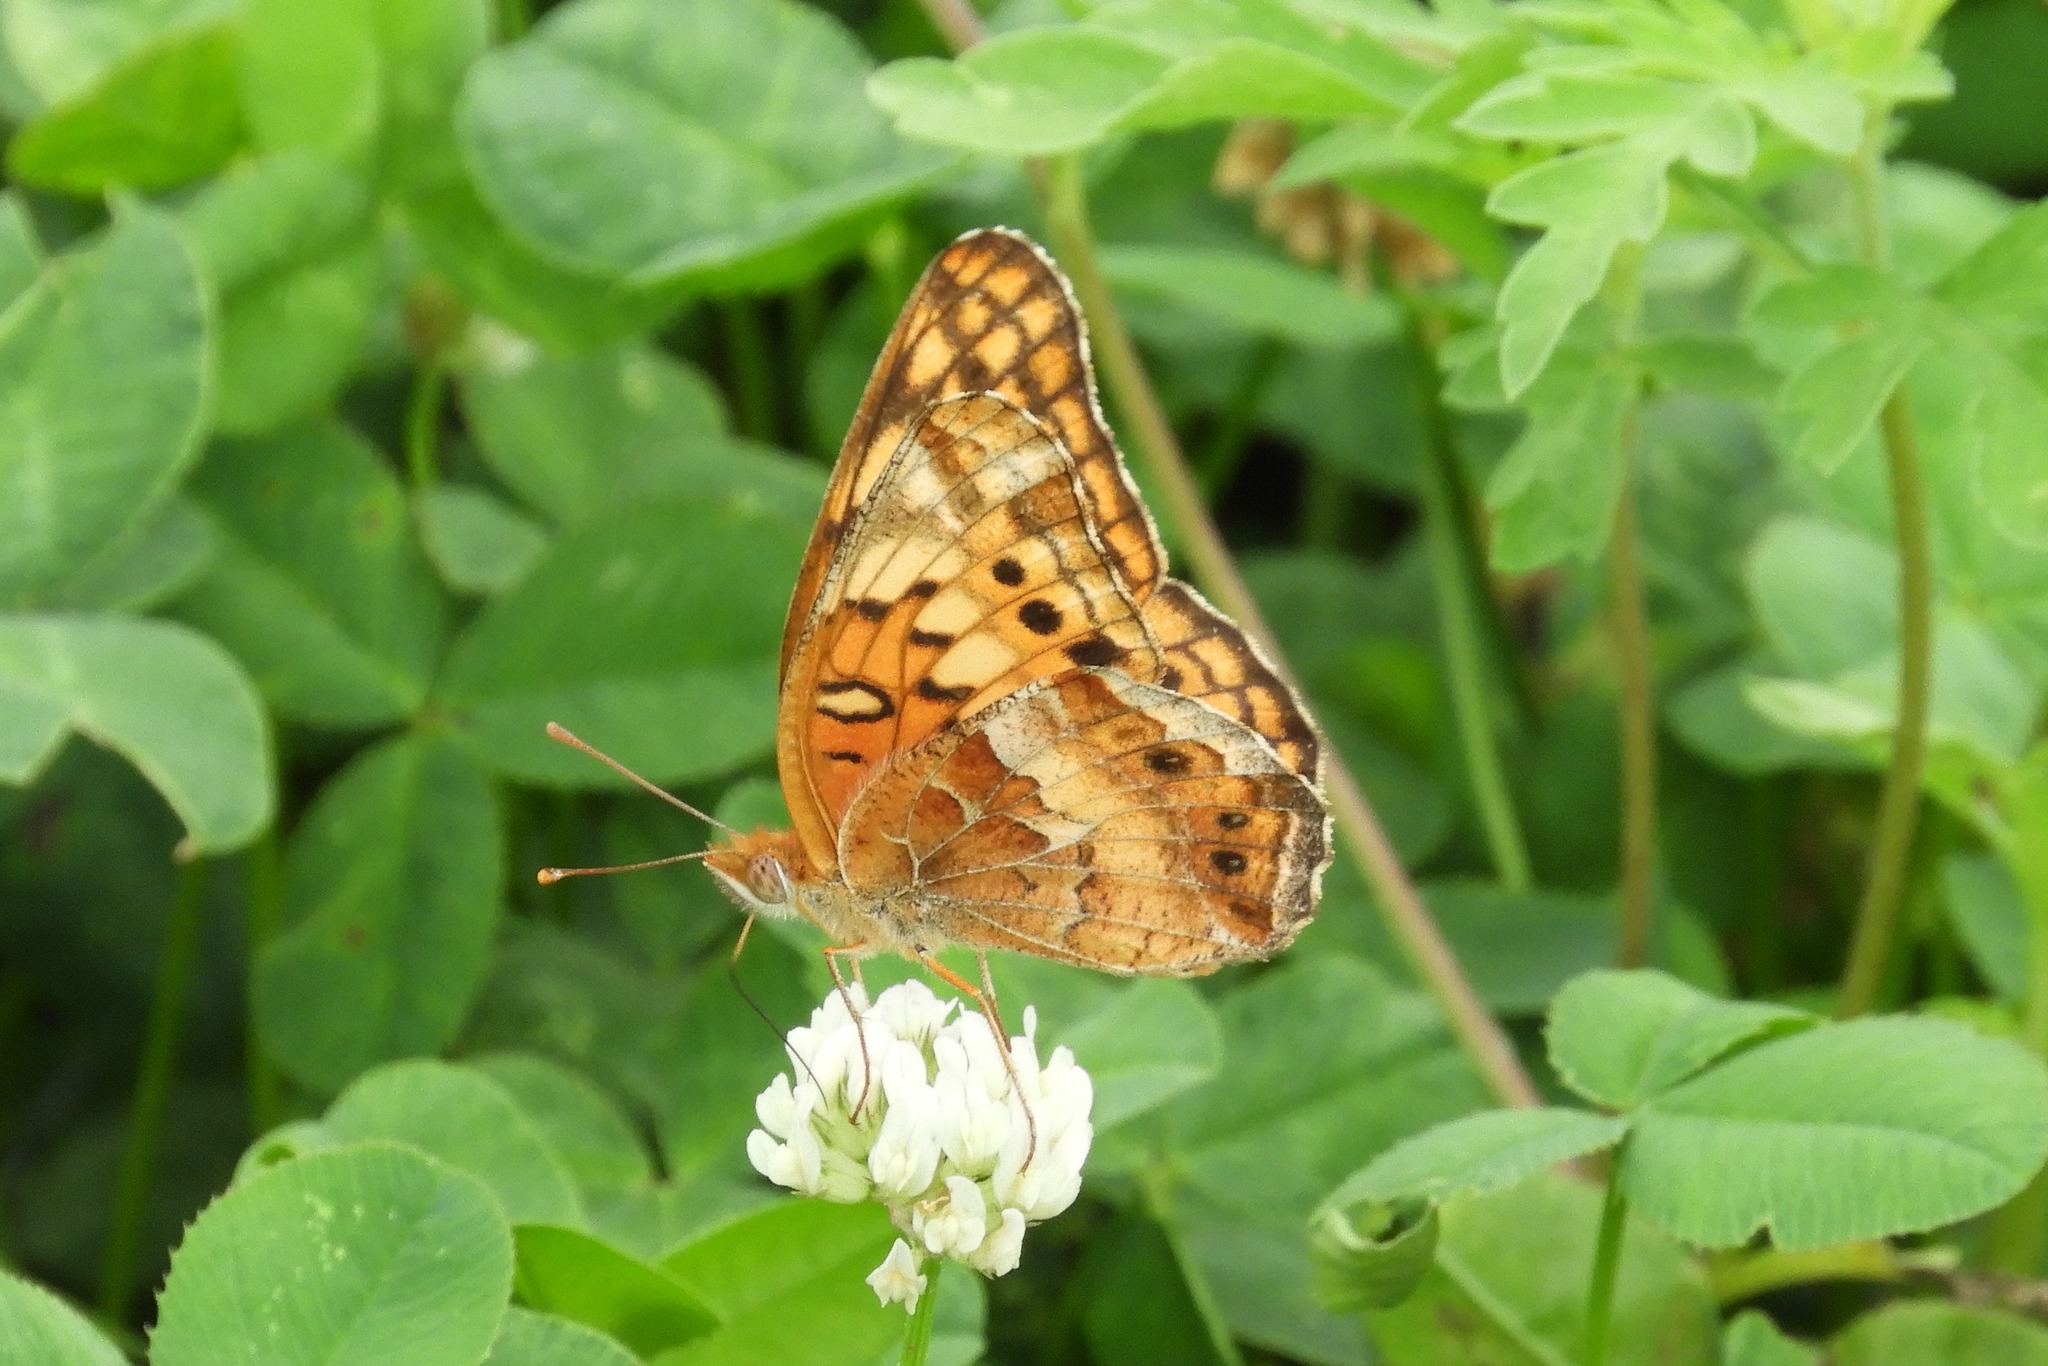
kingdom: Animalia
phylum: Arthropoda
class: Insecta
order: Lepidoptera
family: Nymphalidae
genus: Euptoieta
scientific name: Euptoieta claudia
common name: Variegated fritillary
